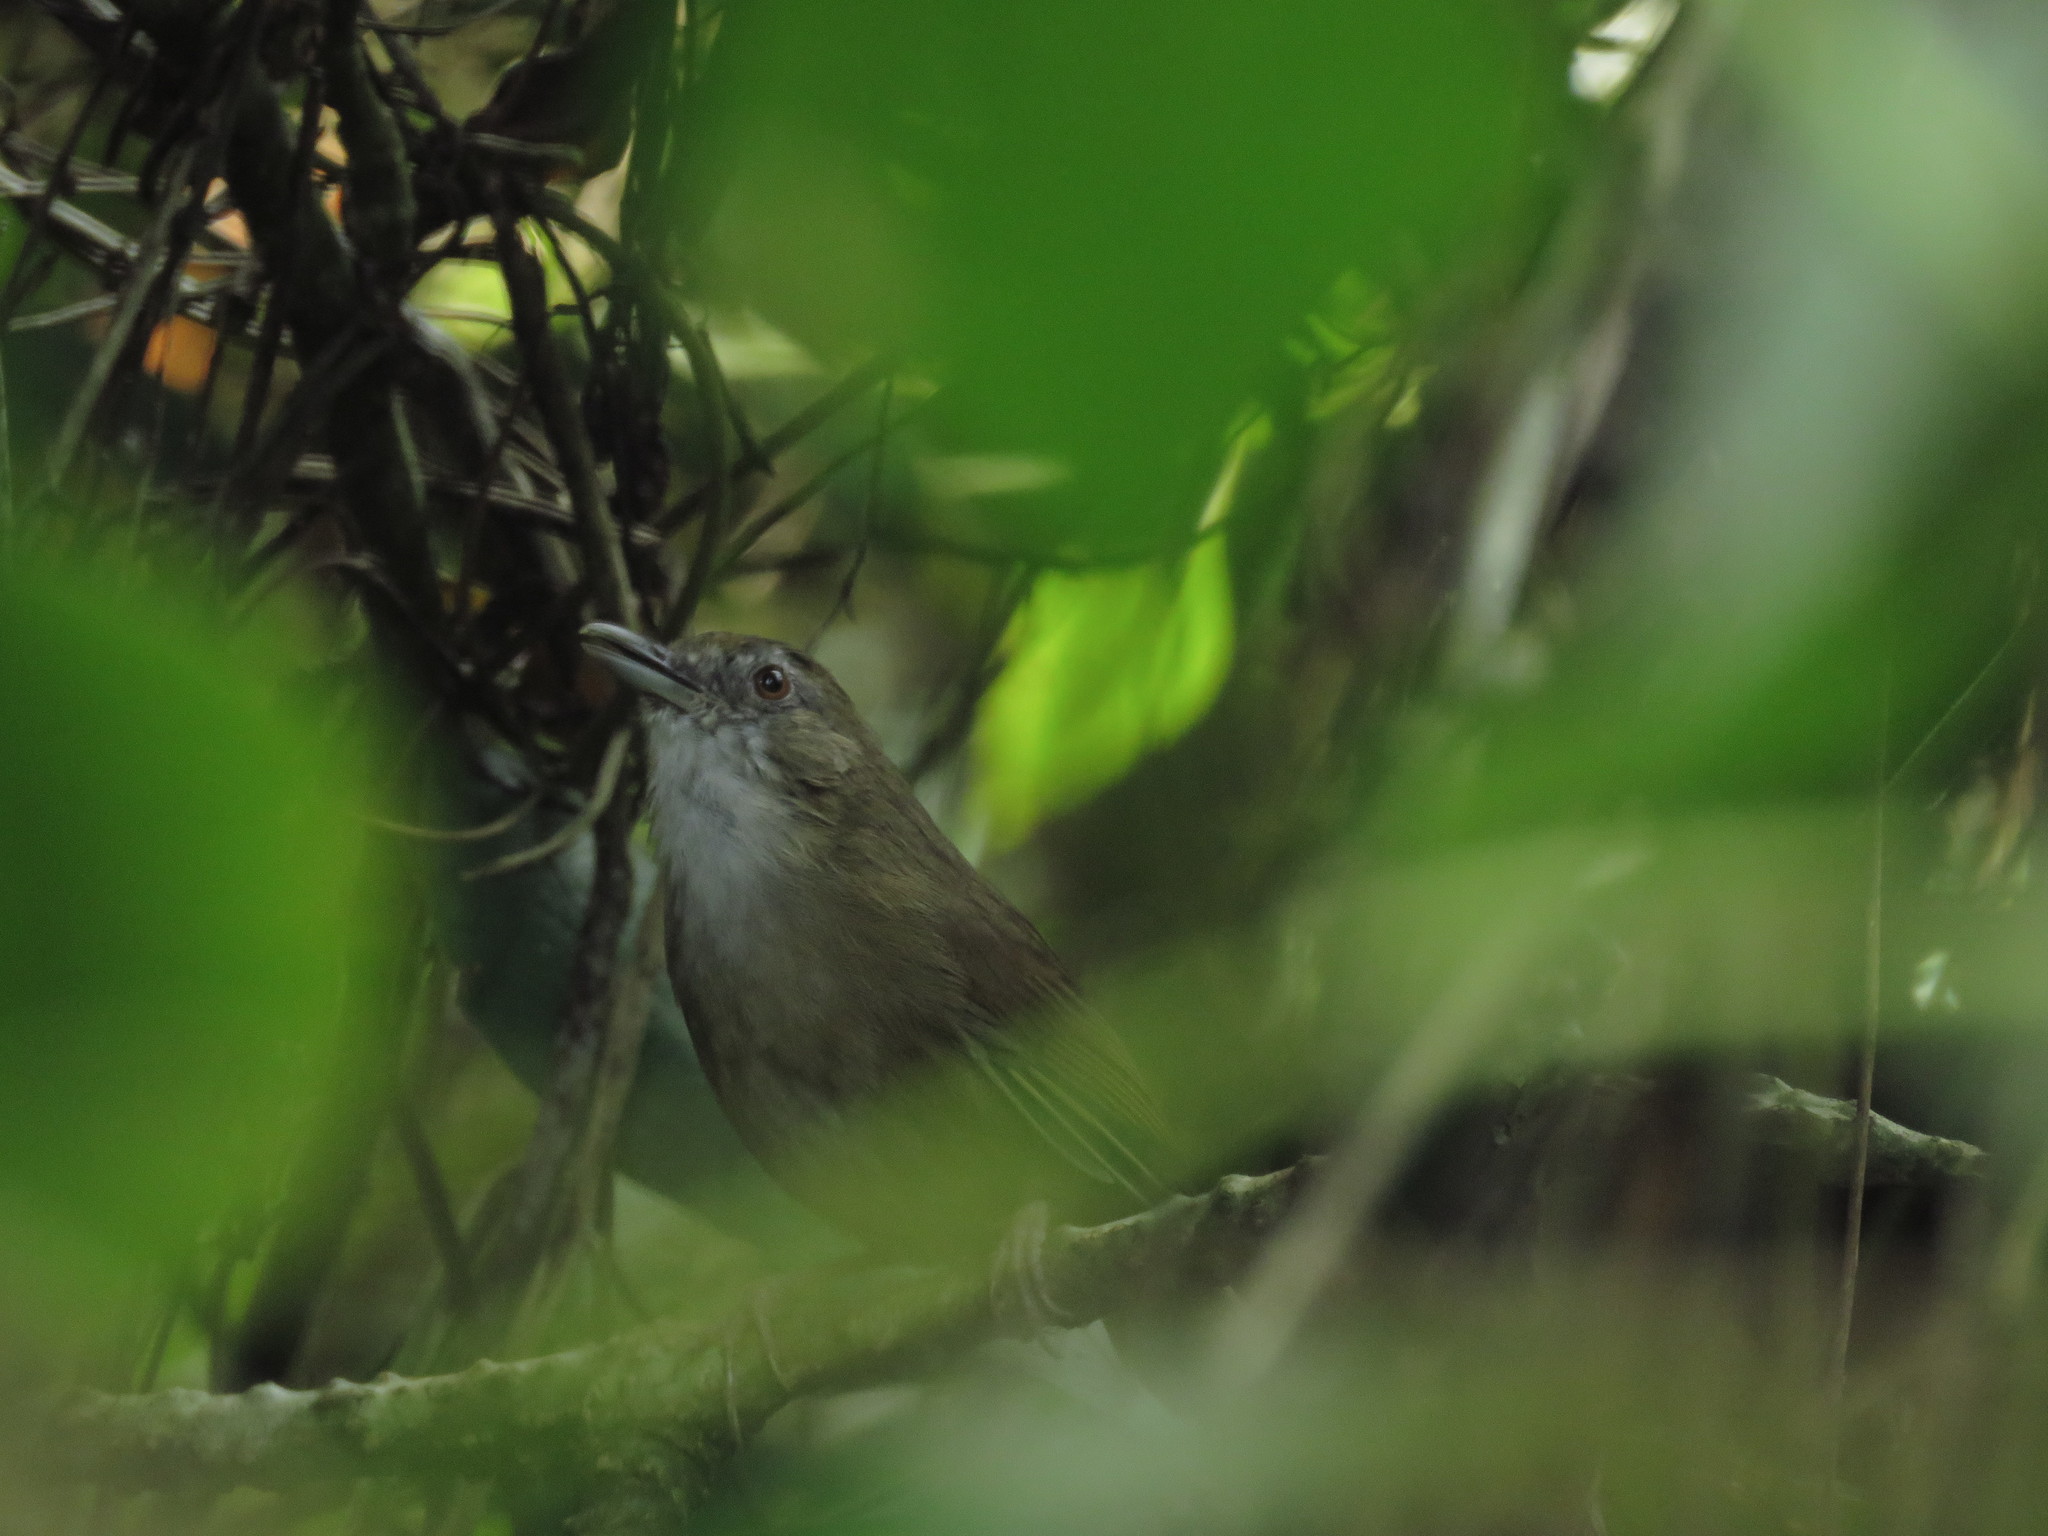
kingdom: Animalia
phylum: Chordata
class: Aves
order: Passeriformes
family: Pellorneidae
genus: Malacocincla
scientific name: Malacocincla abbotti
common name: Abbott's babbler
